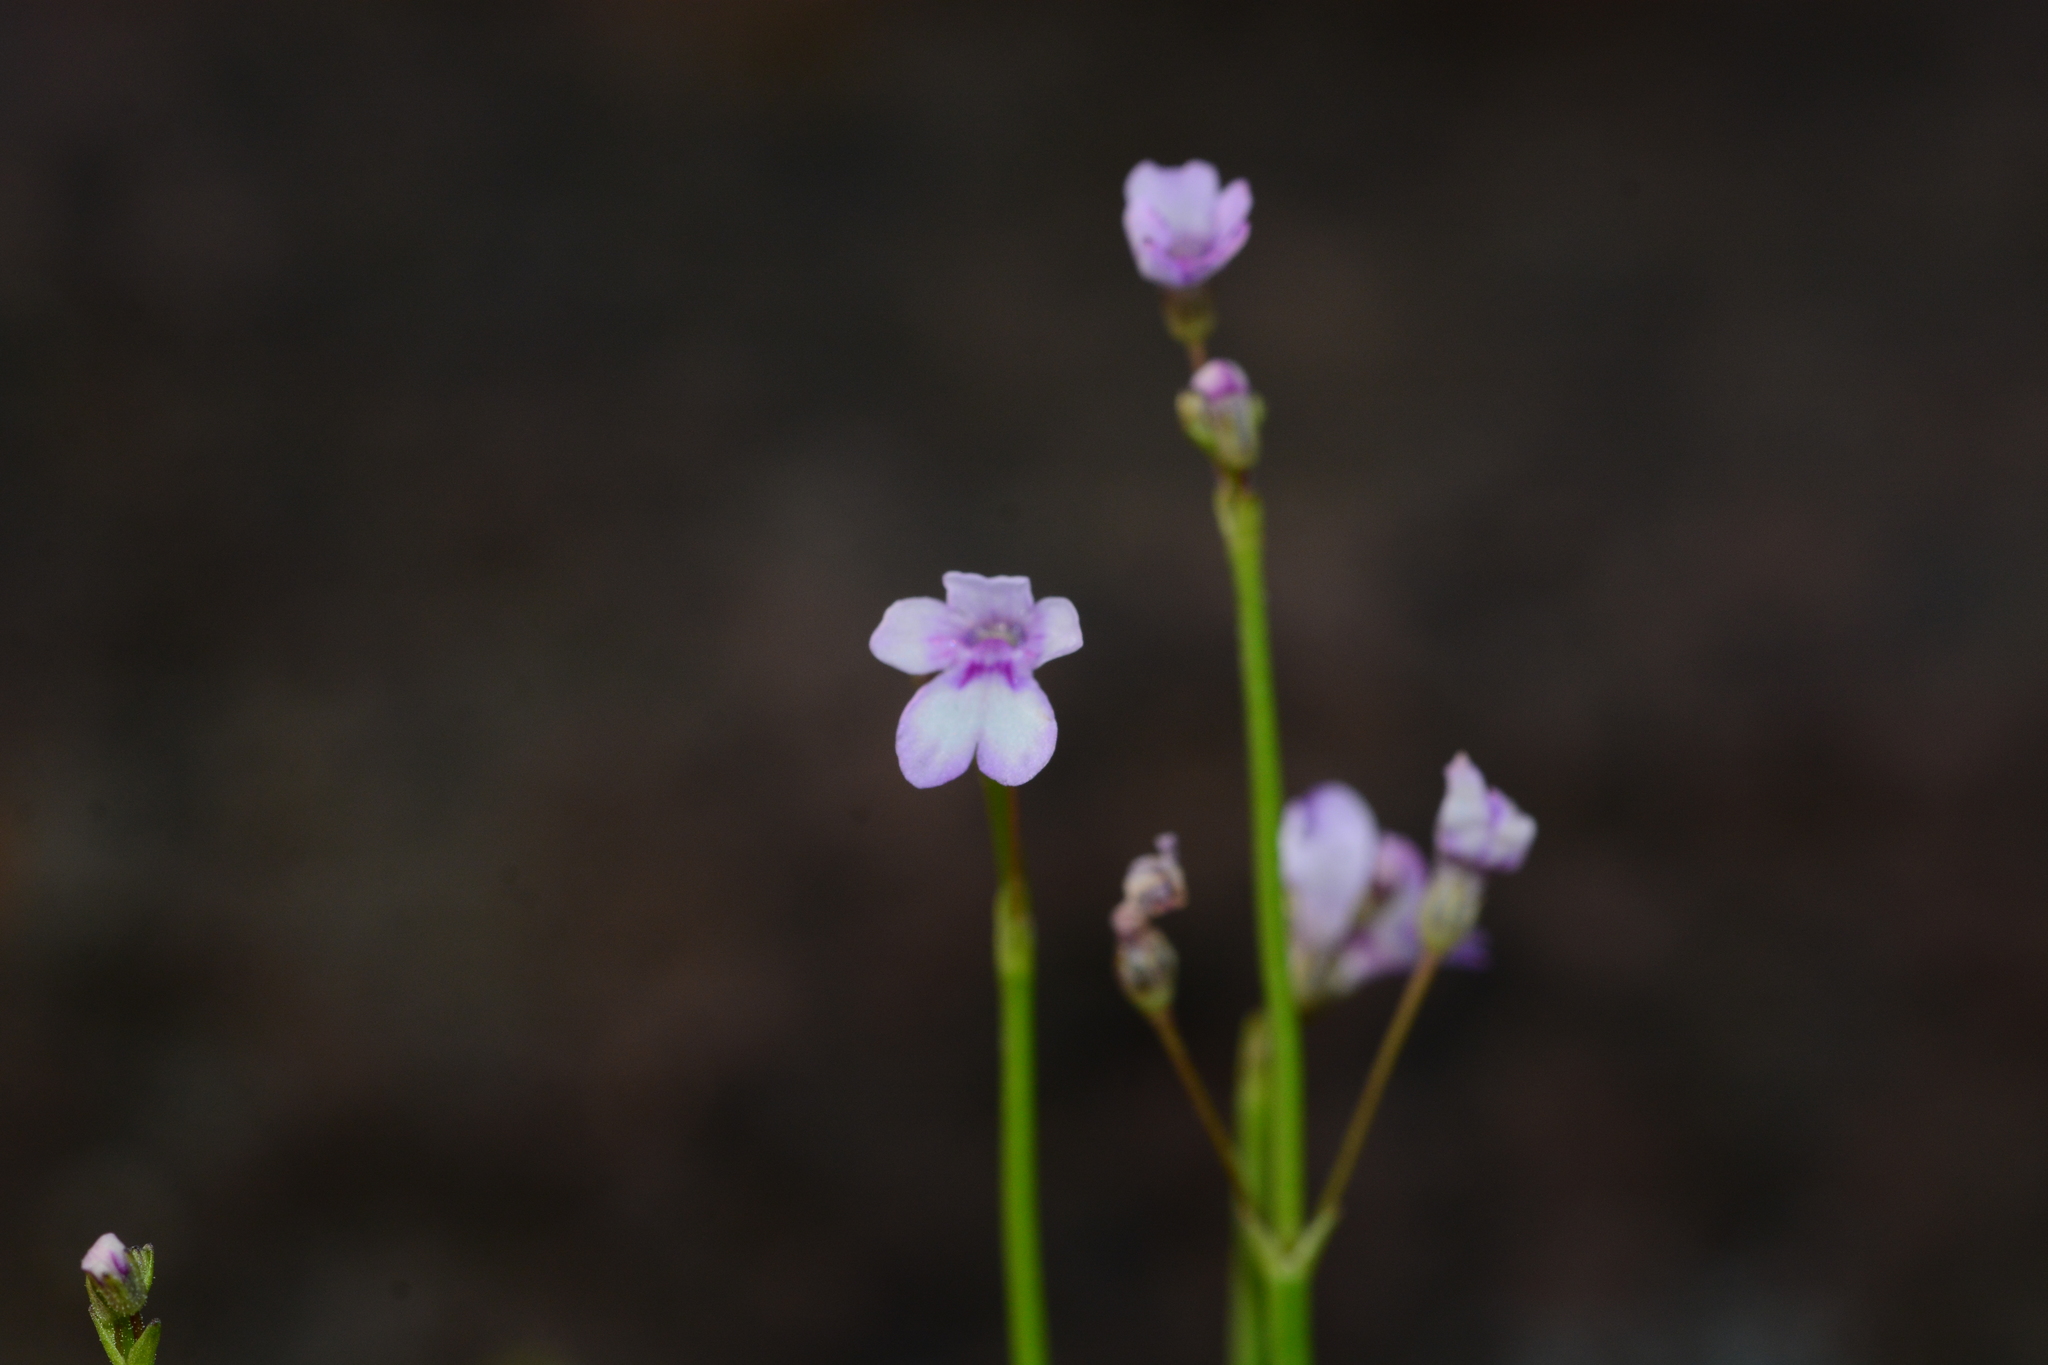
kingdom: Plantae
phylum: Tracheophyta
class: Magnoliopsida
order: Lamiales
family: Plantaginaceae
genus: Dopatrium
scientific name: Dopatrium junceum
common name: Horsefly's eye
